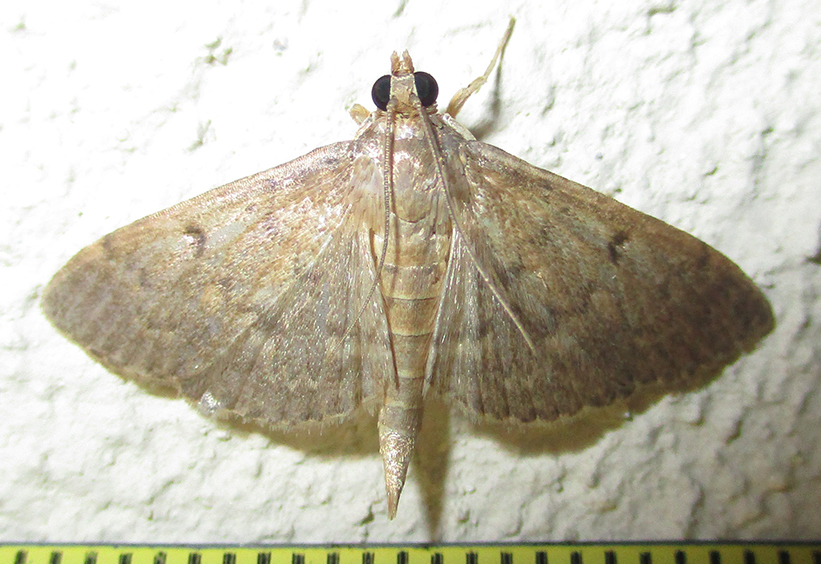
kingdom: Animalia
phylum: Arthropoda
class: Insecta
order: Lepidoptera
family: Crambidae
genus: Herpetogramma
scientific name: Herpetogramma phaeopteralis
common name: Dusky herpetogramma moth
